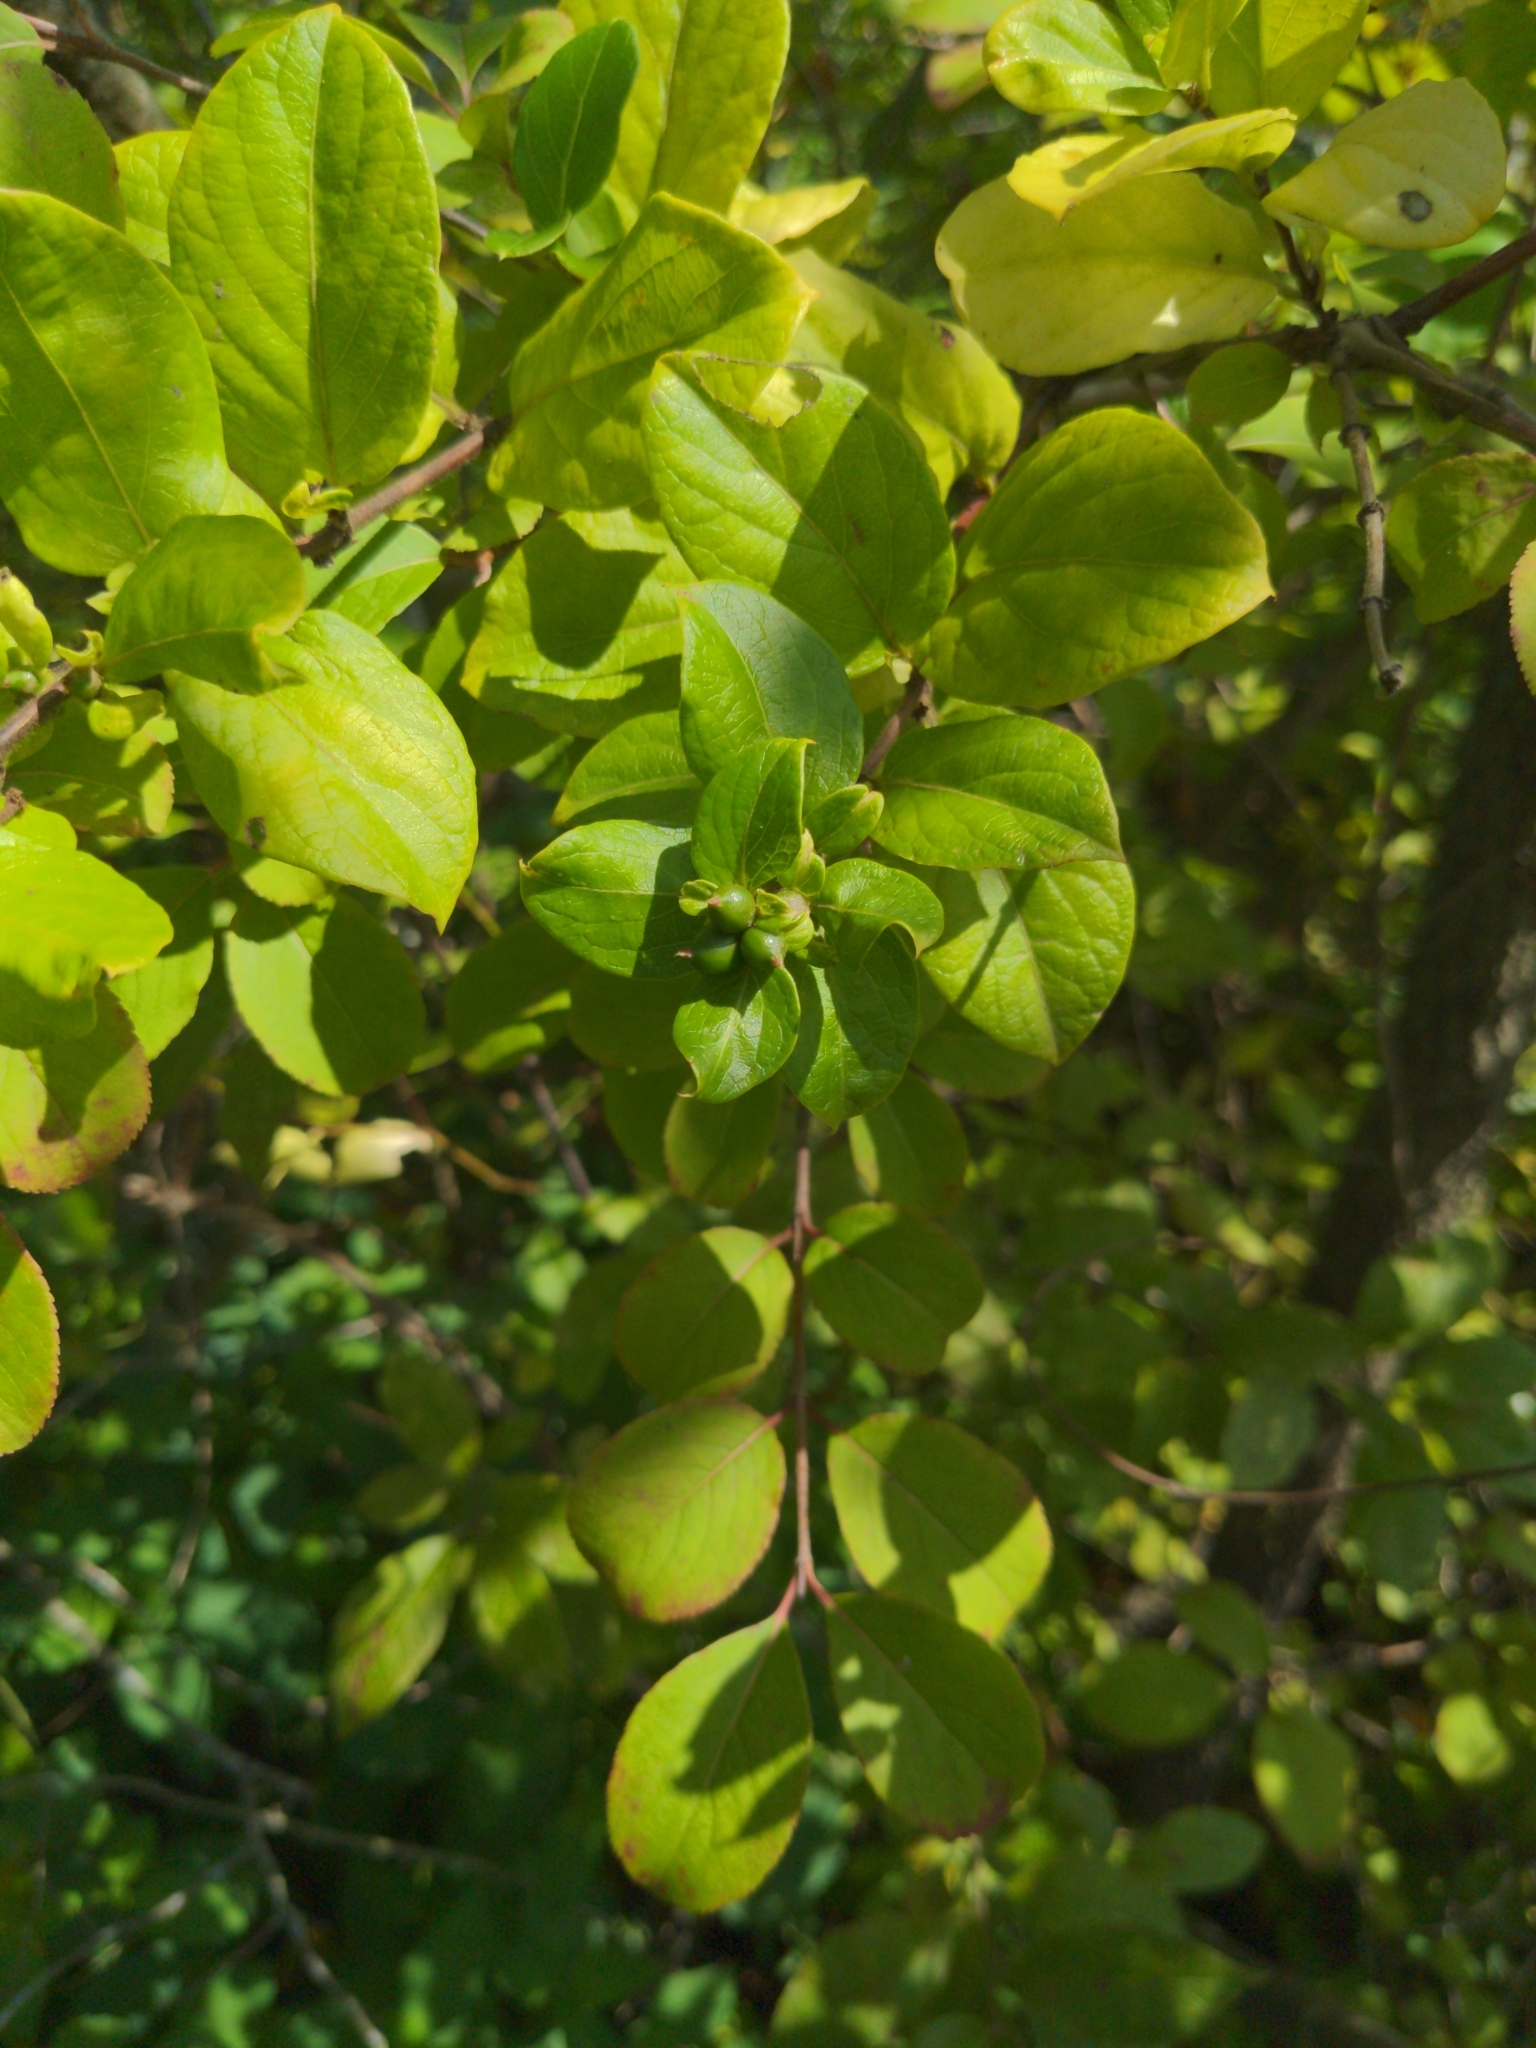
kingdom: Plantae
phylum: Tracheophyta
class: Magnoliopsida
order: Dipsacales
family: Caprifoliaceae
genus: Lonicera
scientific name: Lonicera japonica
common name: Japanese honeysuckle
